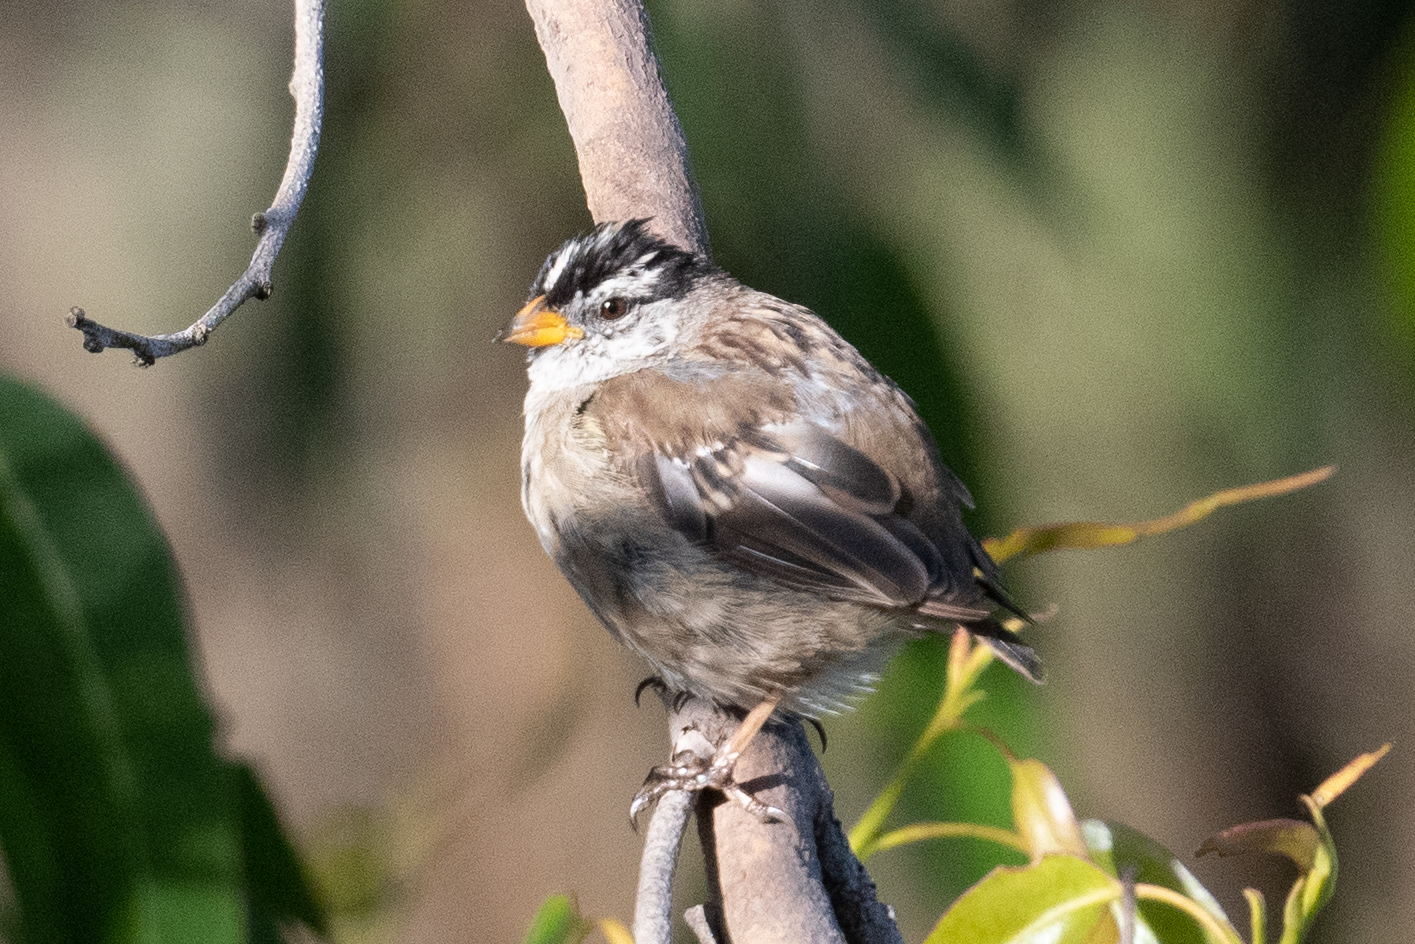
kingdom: Animalia
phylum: Chordata
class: Aves
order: Passeriformes
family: Passerellidae
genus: Zonotrichia
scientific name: Zonotrichia leucophrys
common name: White-crowned sparrow
